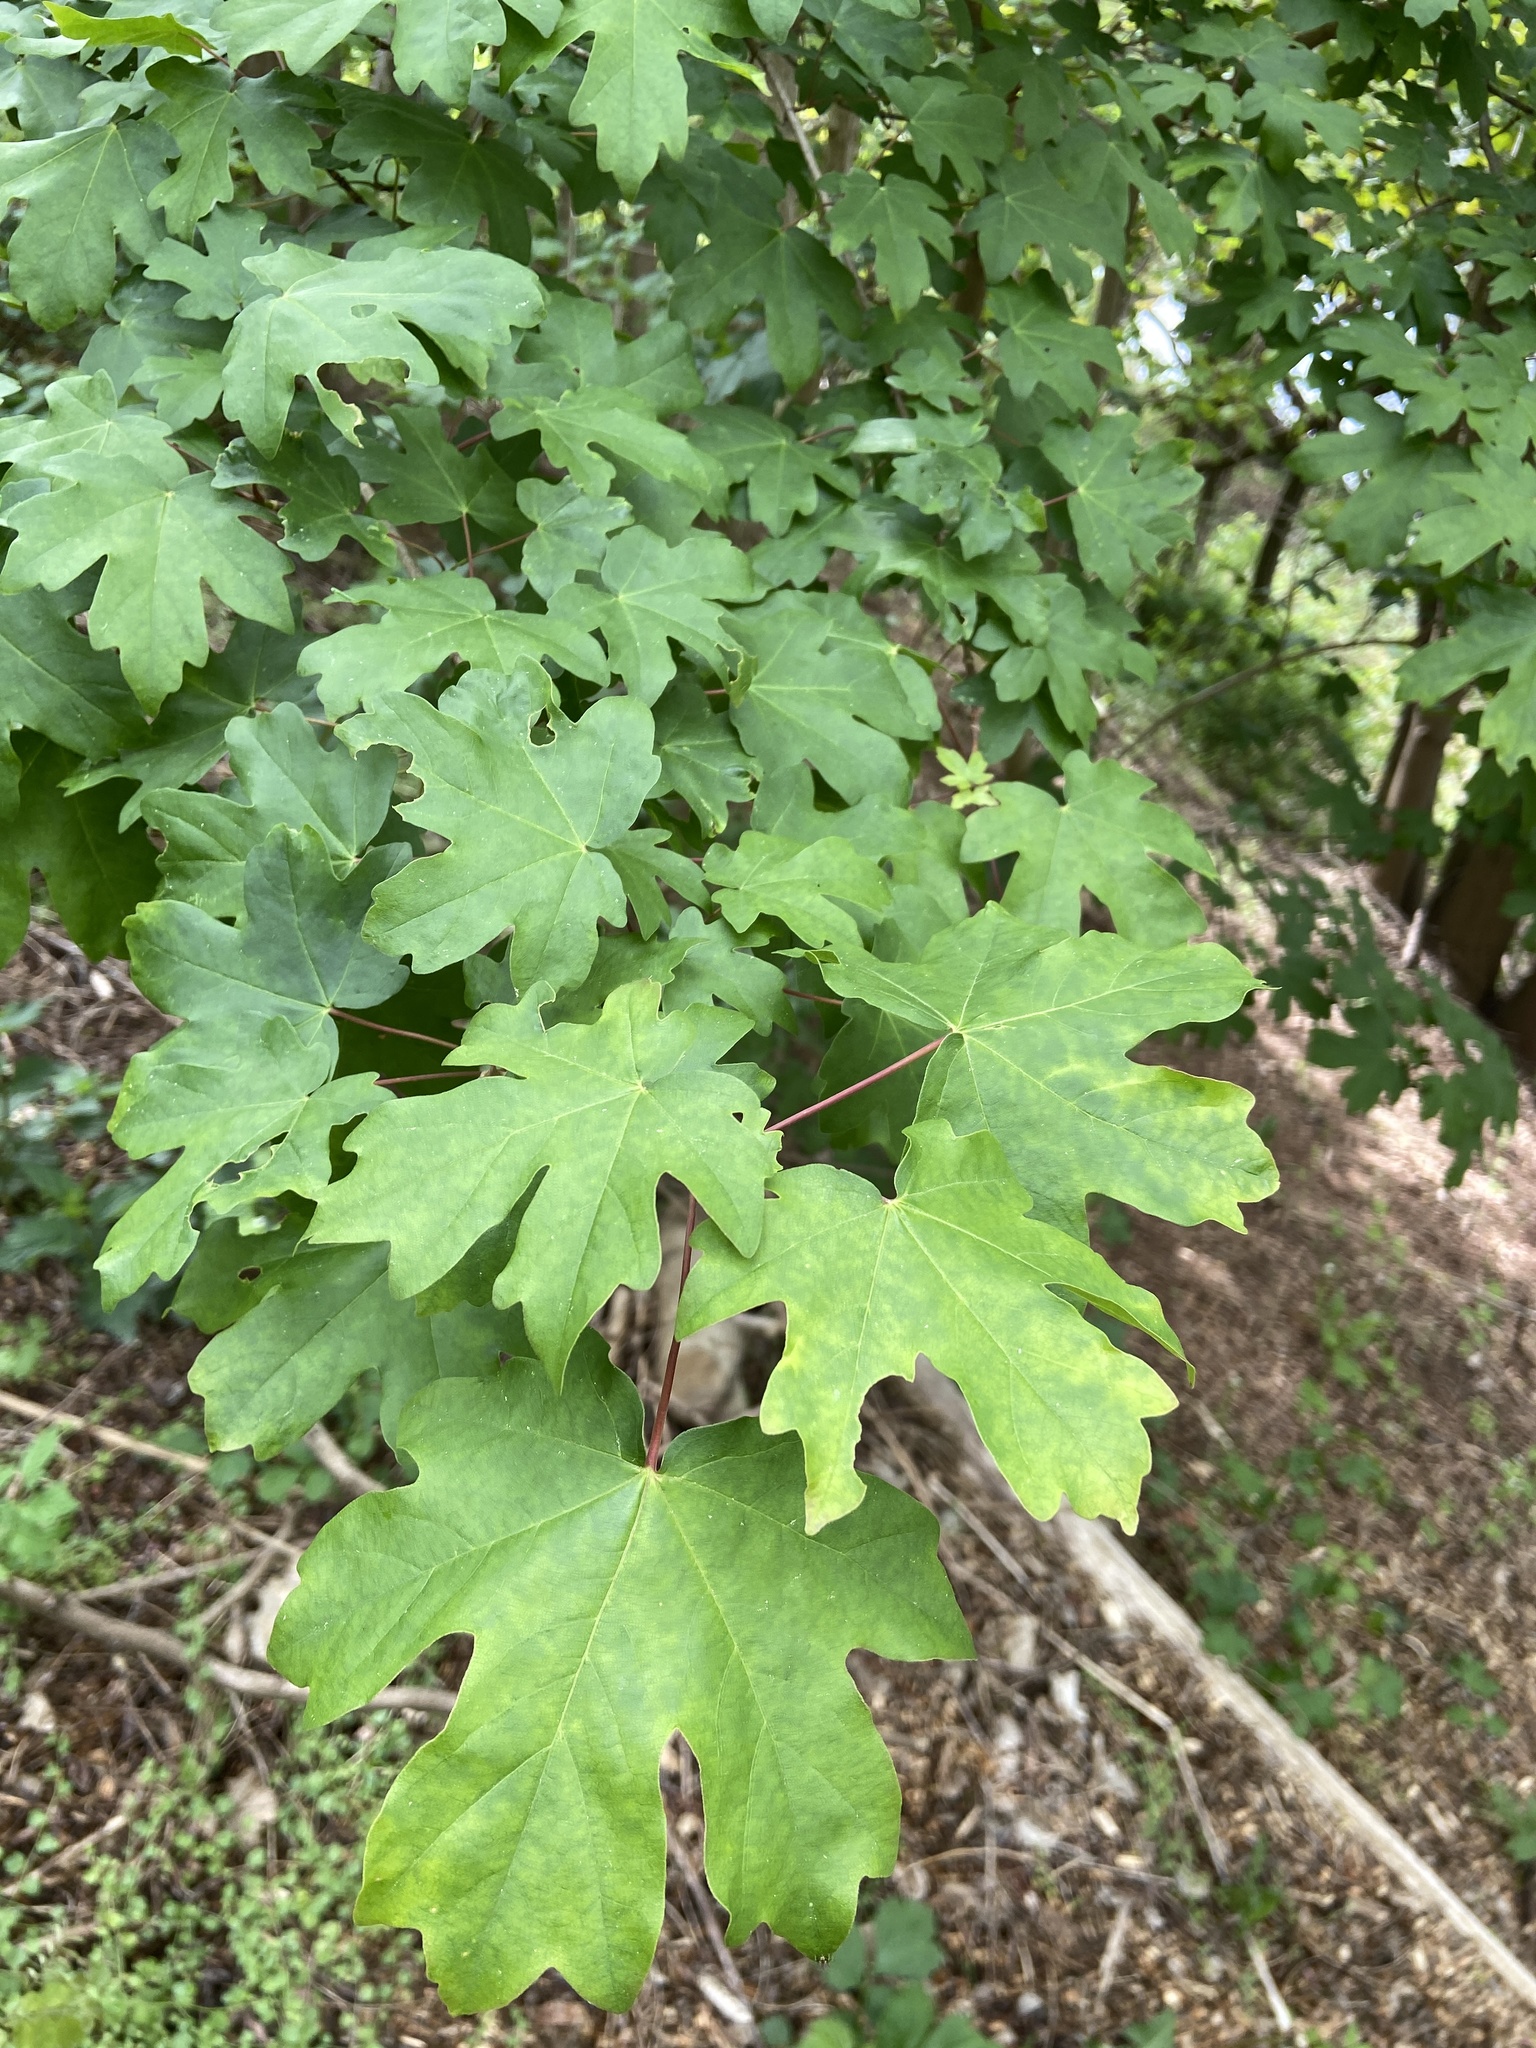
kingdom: Plantae
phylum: Tracheophyta
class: Magnoliopsida
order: Sapindales
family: Sapindaceae
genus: Acer
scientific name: Acer campestre
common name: Field maple
